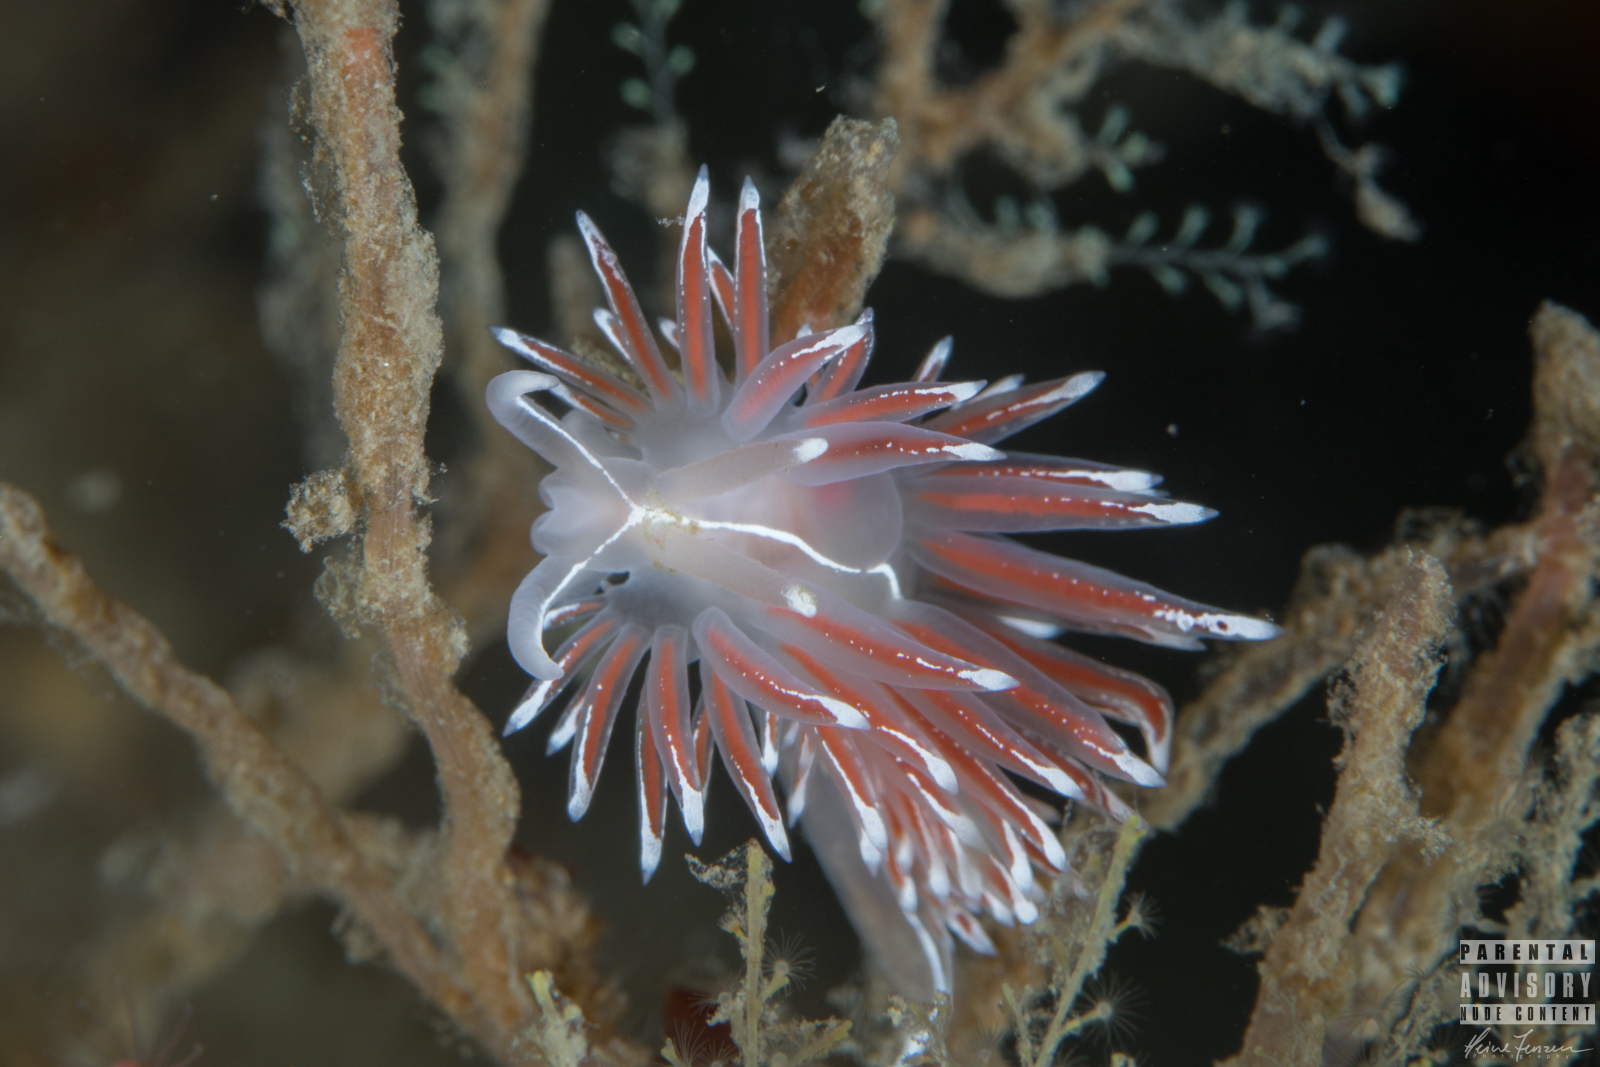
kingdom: Animalia
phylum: Mollusca
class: Gastropoda
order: Nudibranchia
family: Coryphellidae
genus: Coryphella
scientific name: Coryphella lineata
